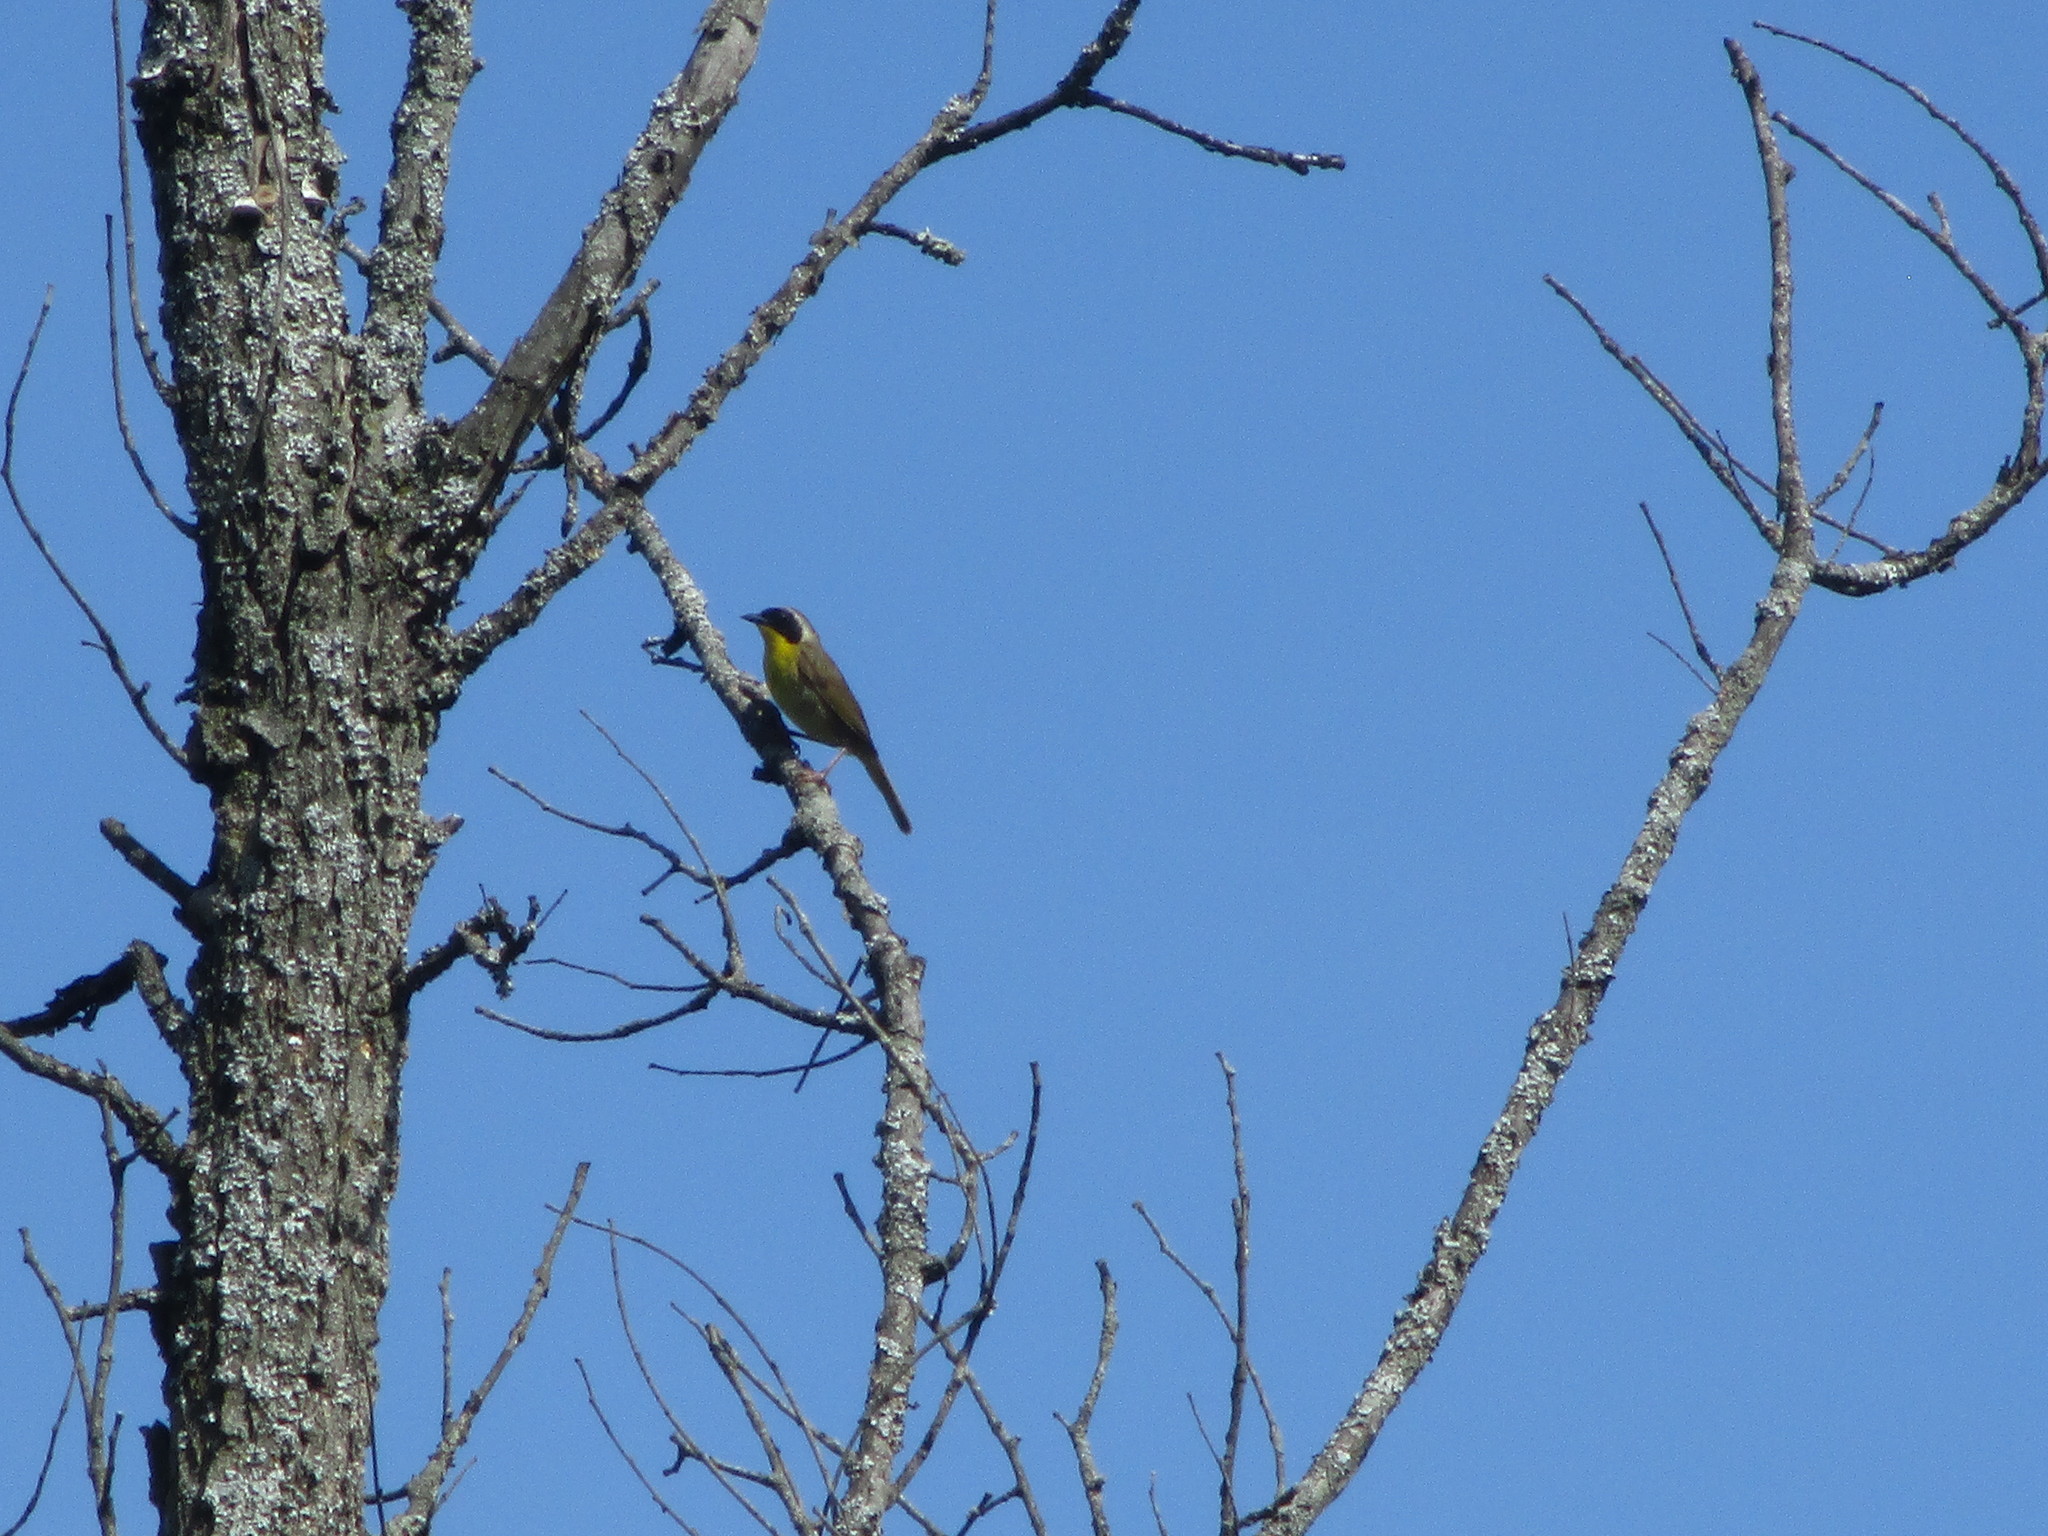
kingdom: Animalia
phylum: Chordata
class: Aves
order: Passeriformes
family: Parulidae
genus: Geothlypis
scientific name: Geothlypis trichas
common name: Common yellowthroat
